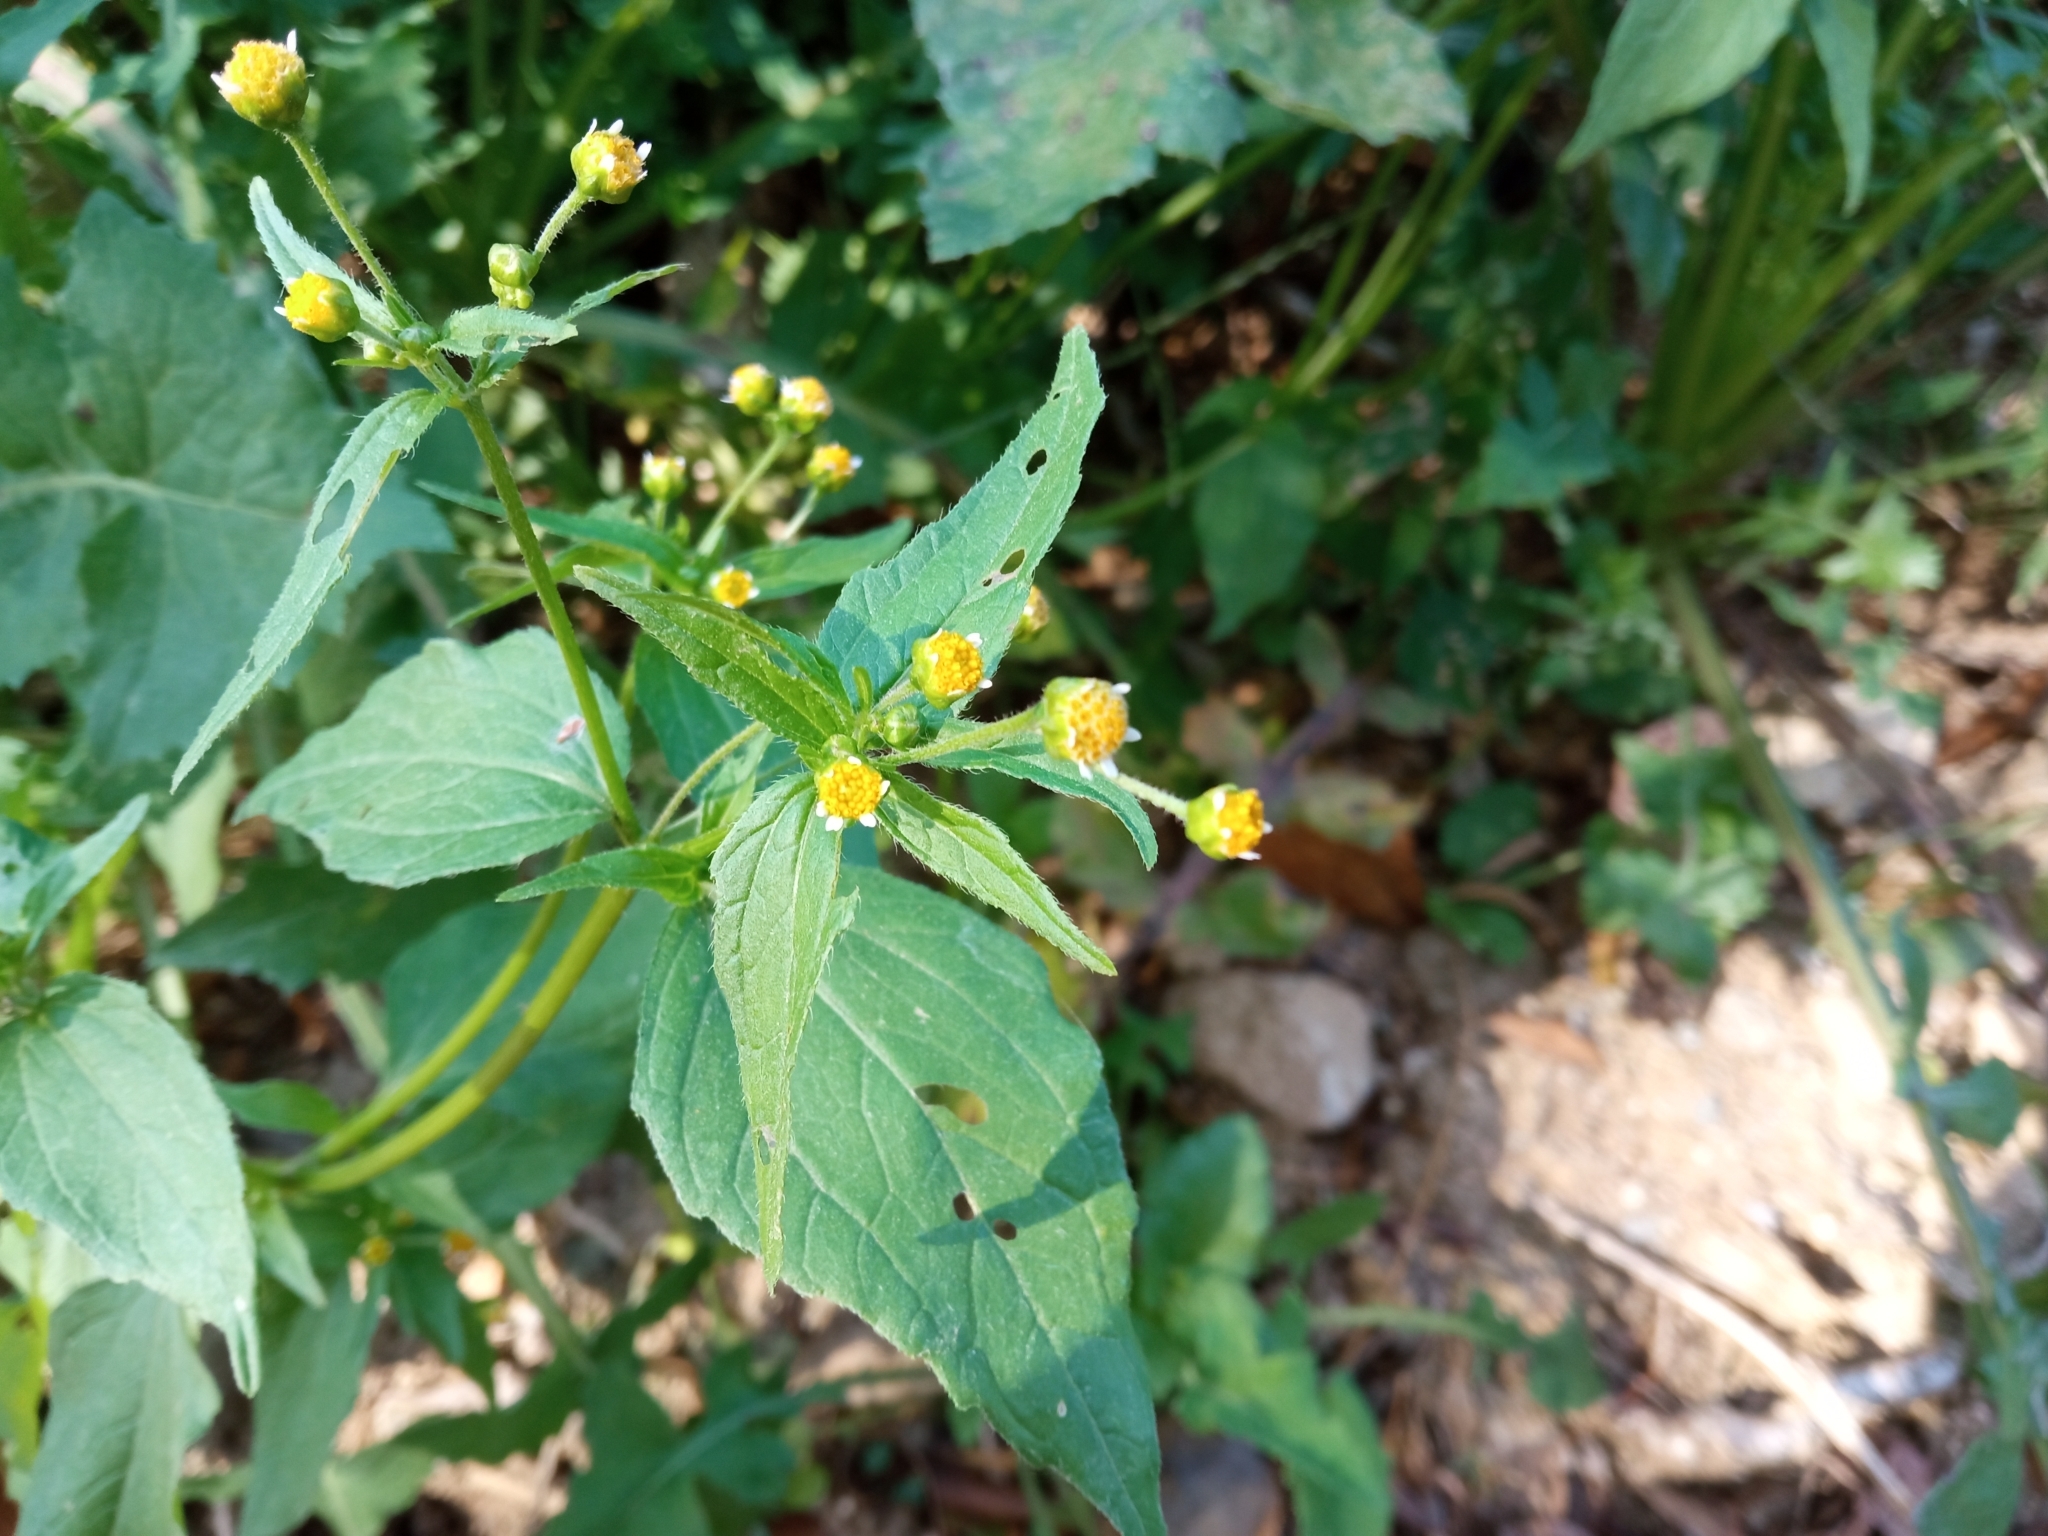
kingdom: Plantae
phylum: Tracheophyta
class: Magnoliopsida
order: Asterales
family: Asteraceae
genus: Galinsoga
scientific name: Galinsoga parviflora
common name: Gallant soldier
